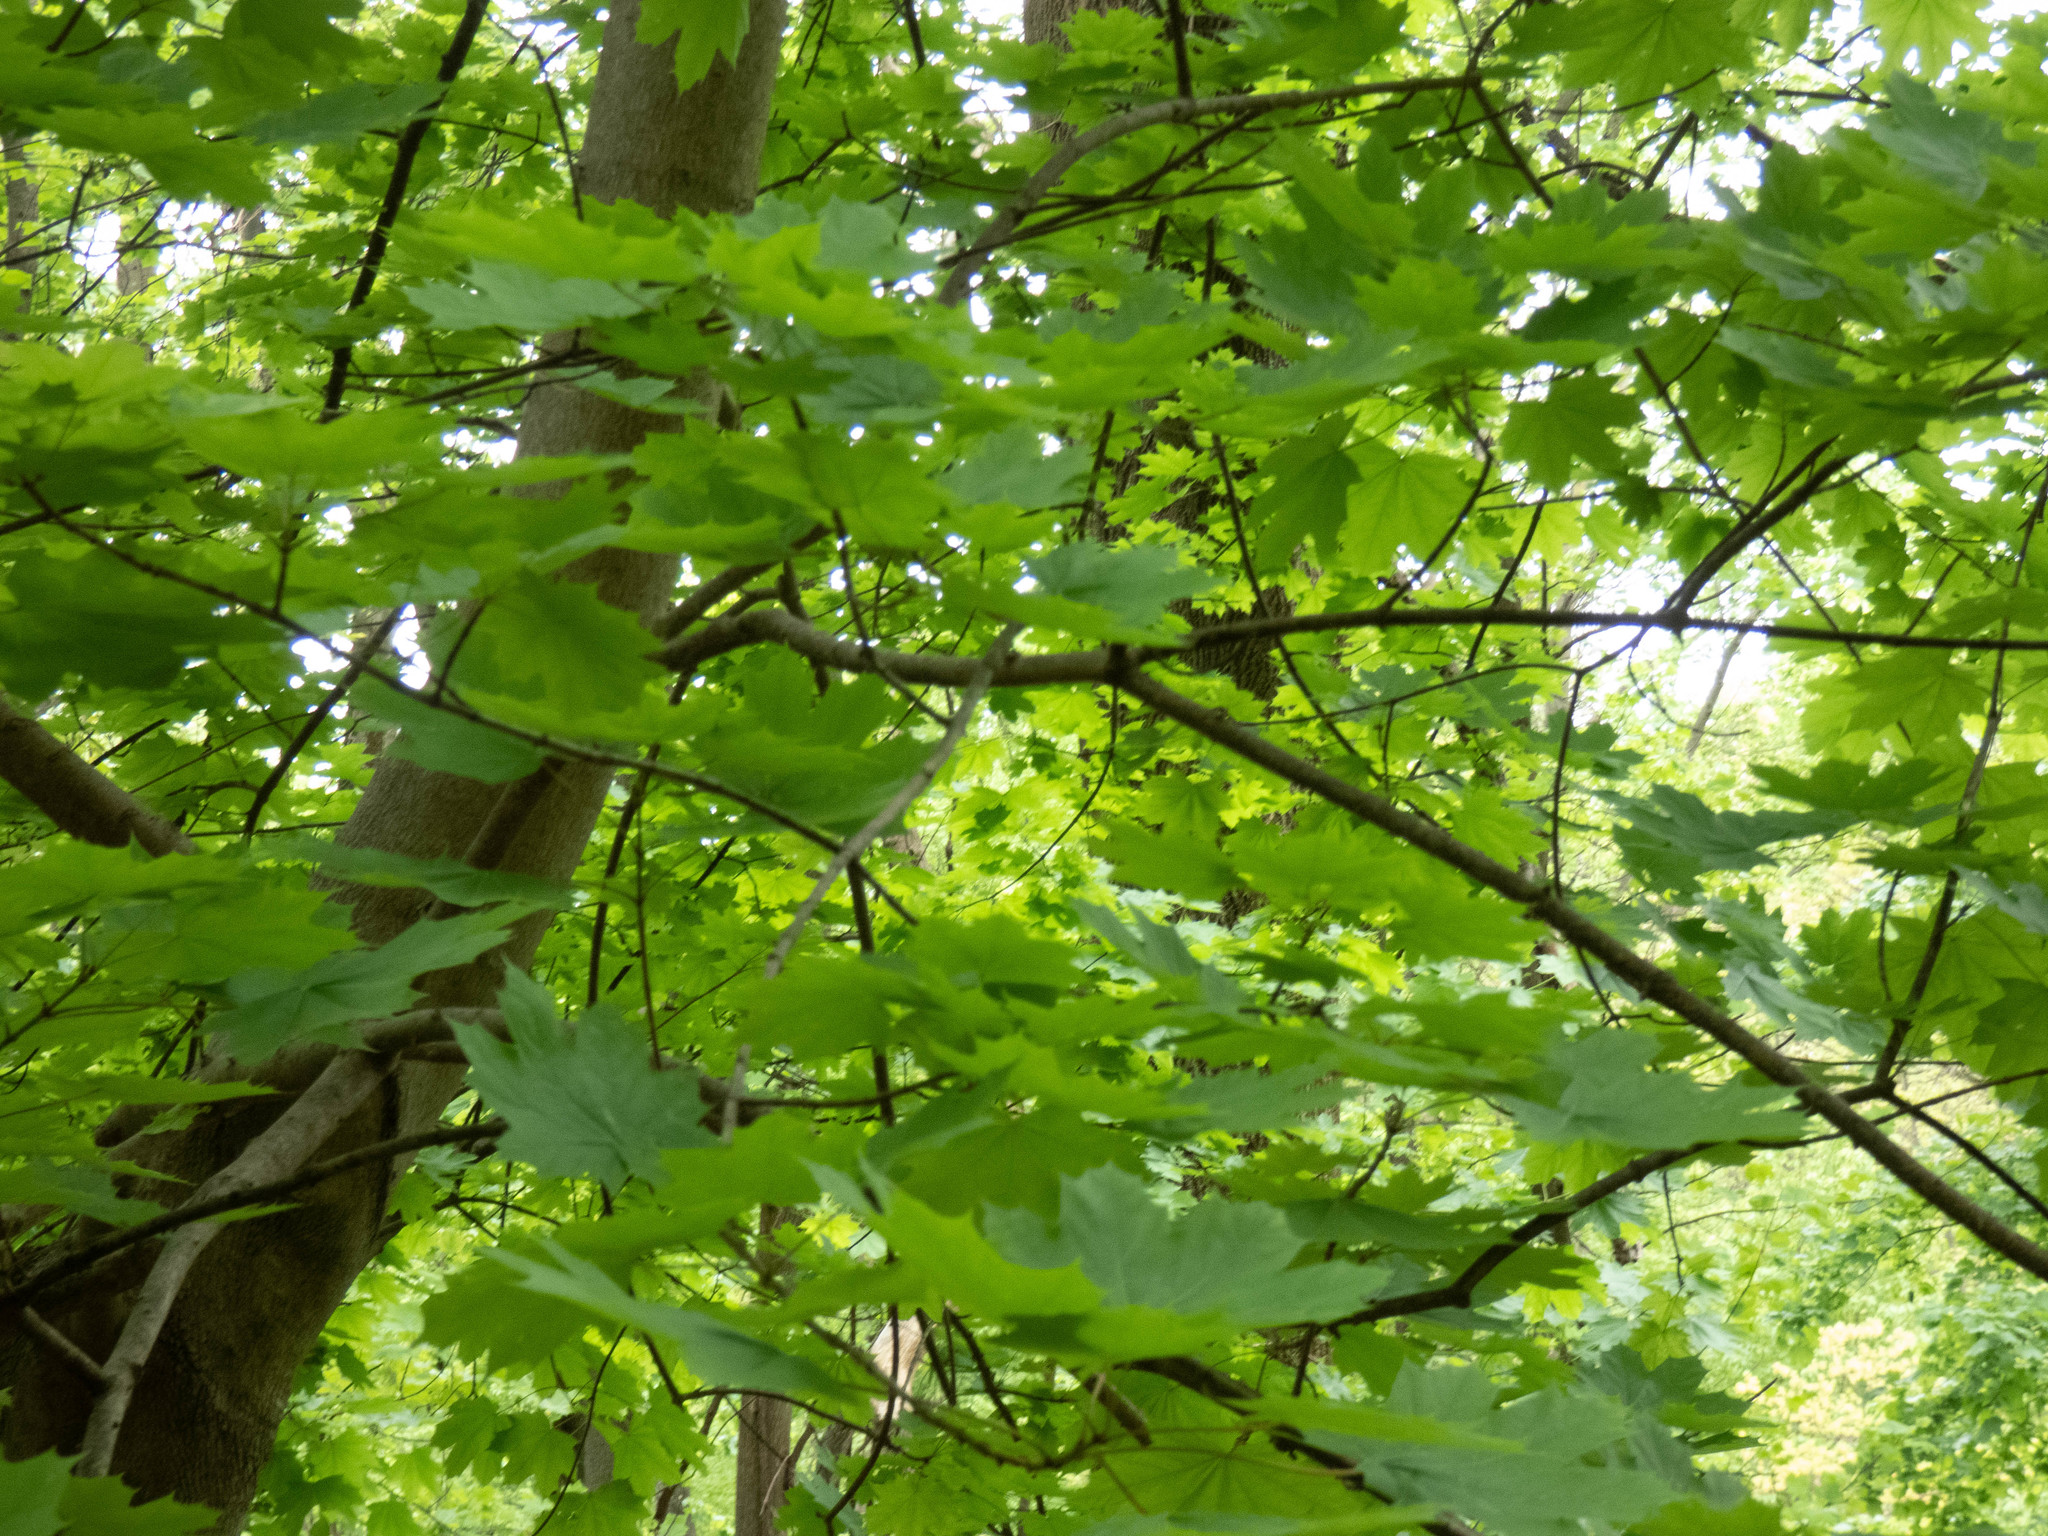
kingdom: Plantae
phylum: Tracheophyta
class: Magnoliopsida
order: Sapindales
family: Sapindaceae
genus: Acer
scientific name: Acer platanoides
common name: Norway maple
